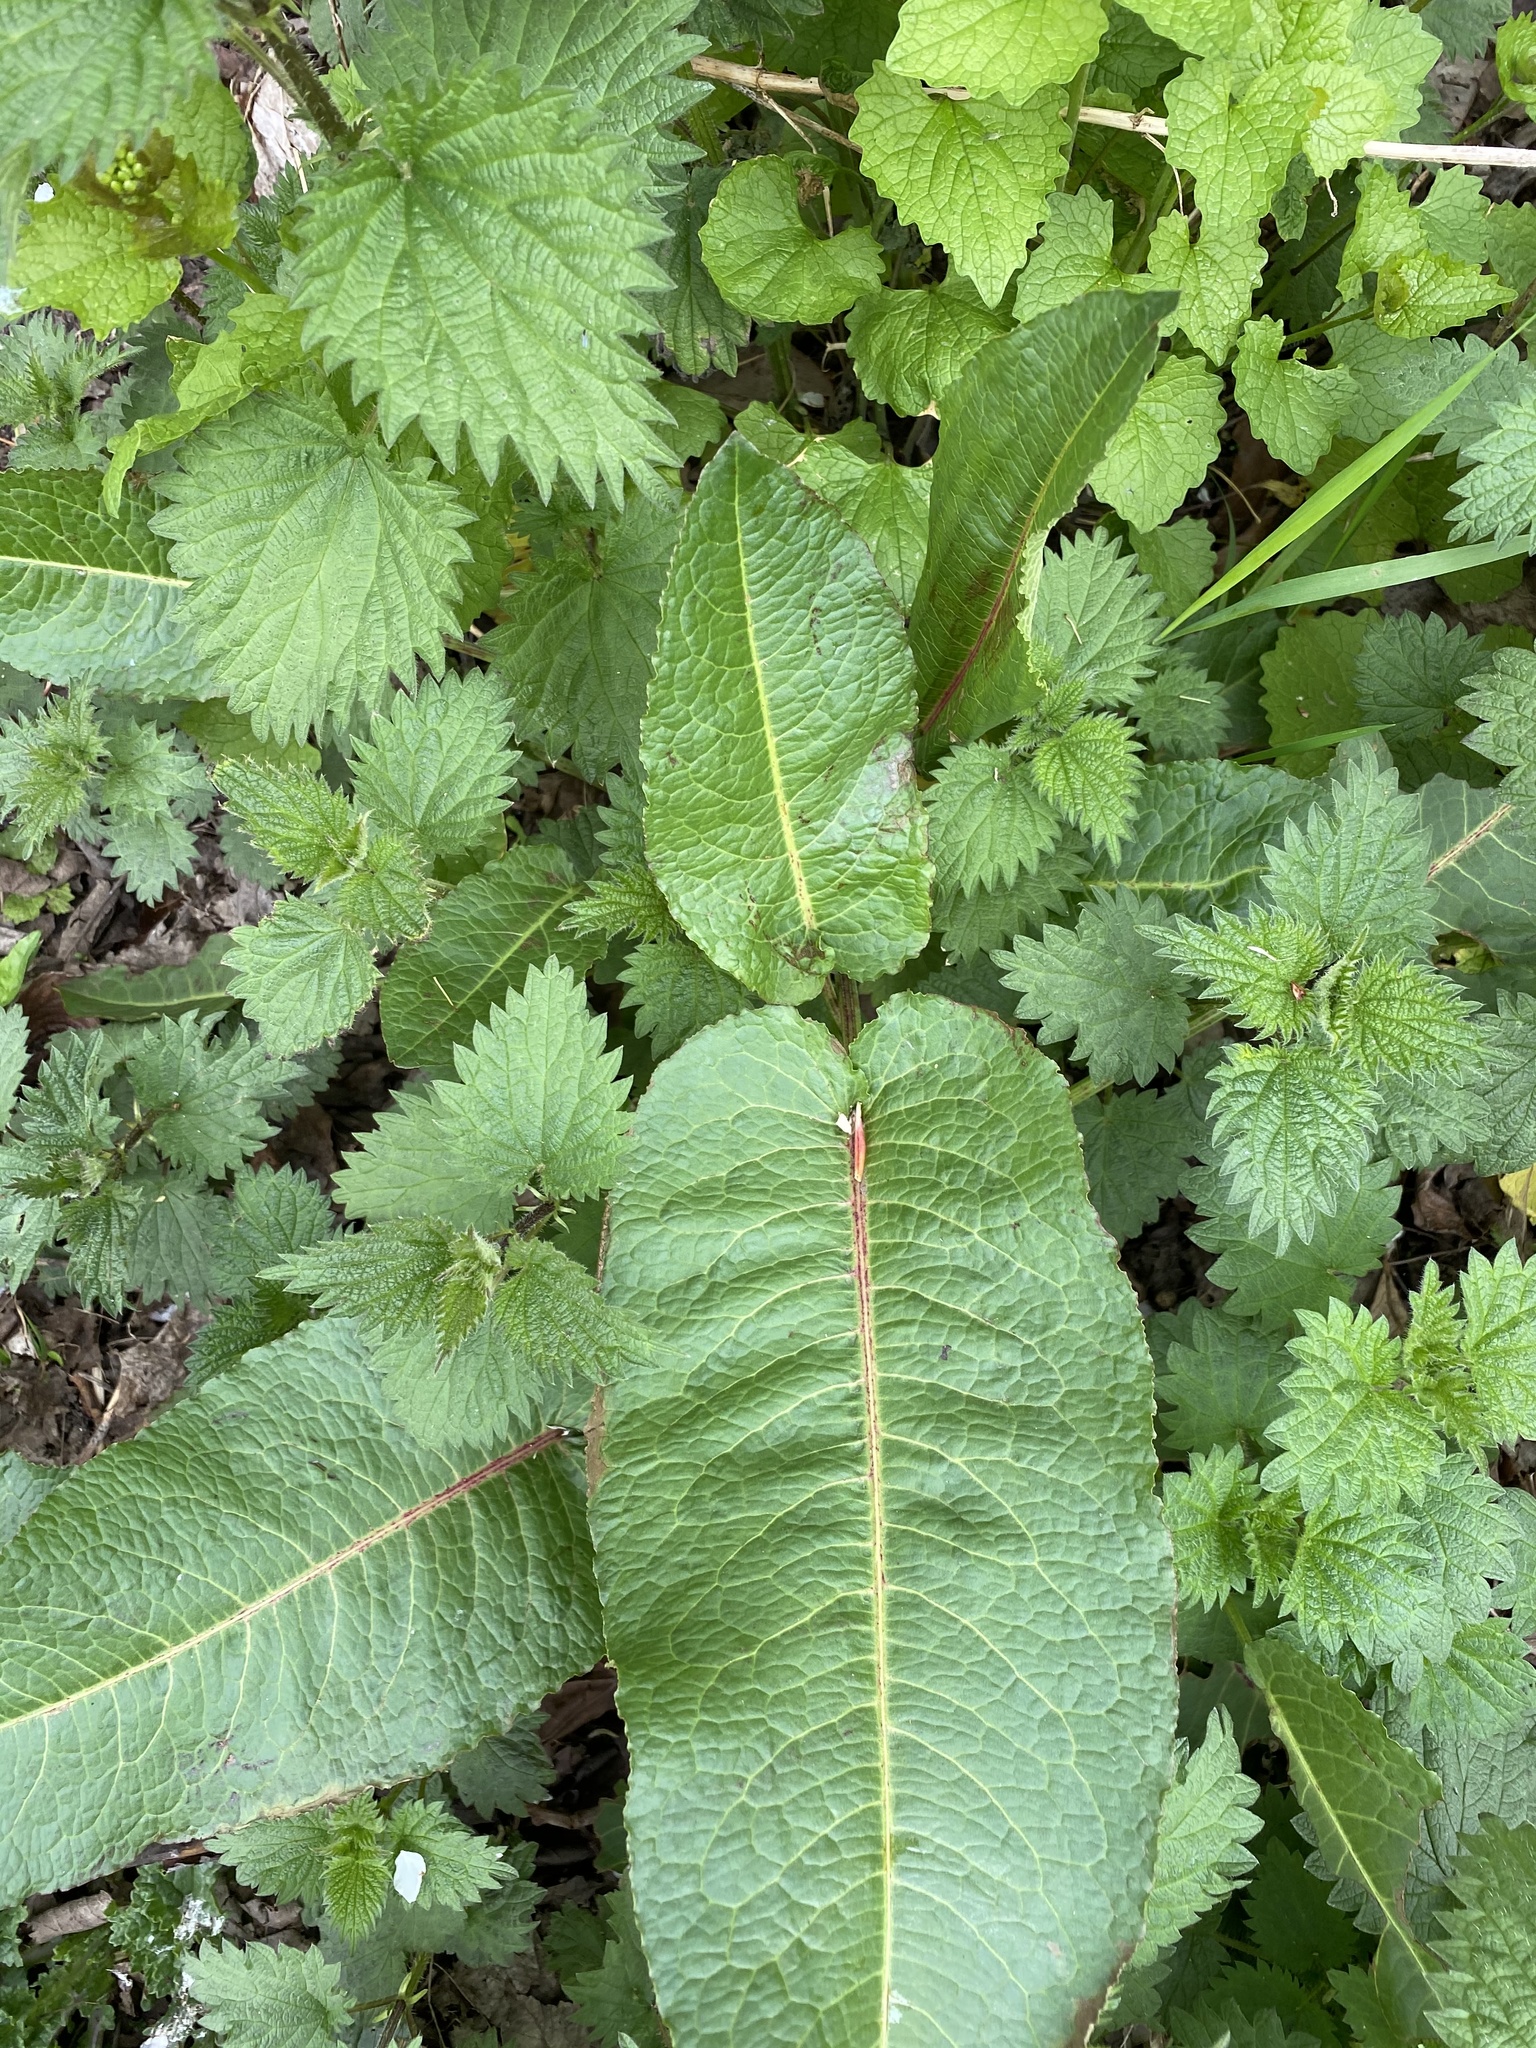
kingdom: Plantae
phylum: Tracheophyta
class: Magnoliopsida
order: Caryophyllales
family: Polygonaceae
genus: Rumex
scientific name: Rumex obtusifolius
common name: Bitter dock
